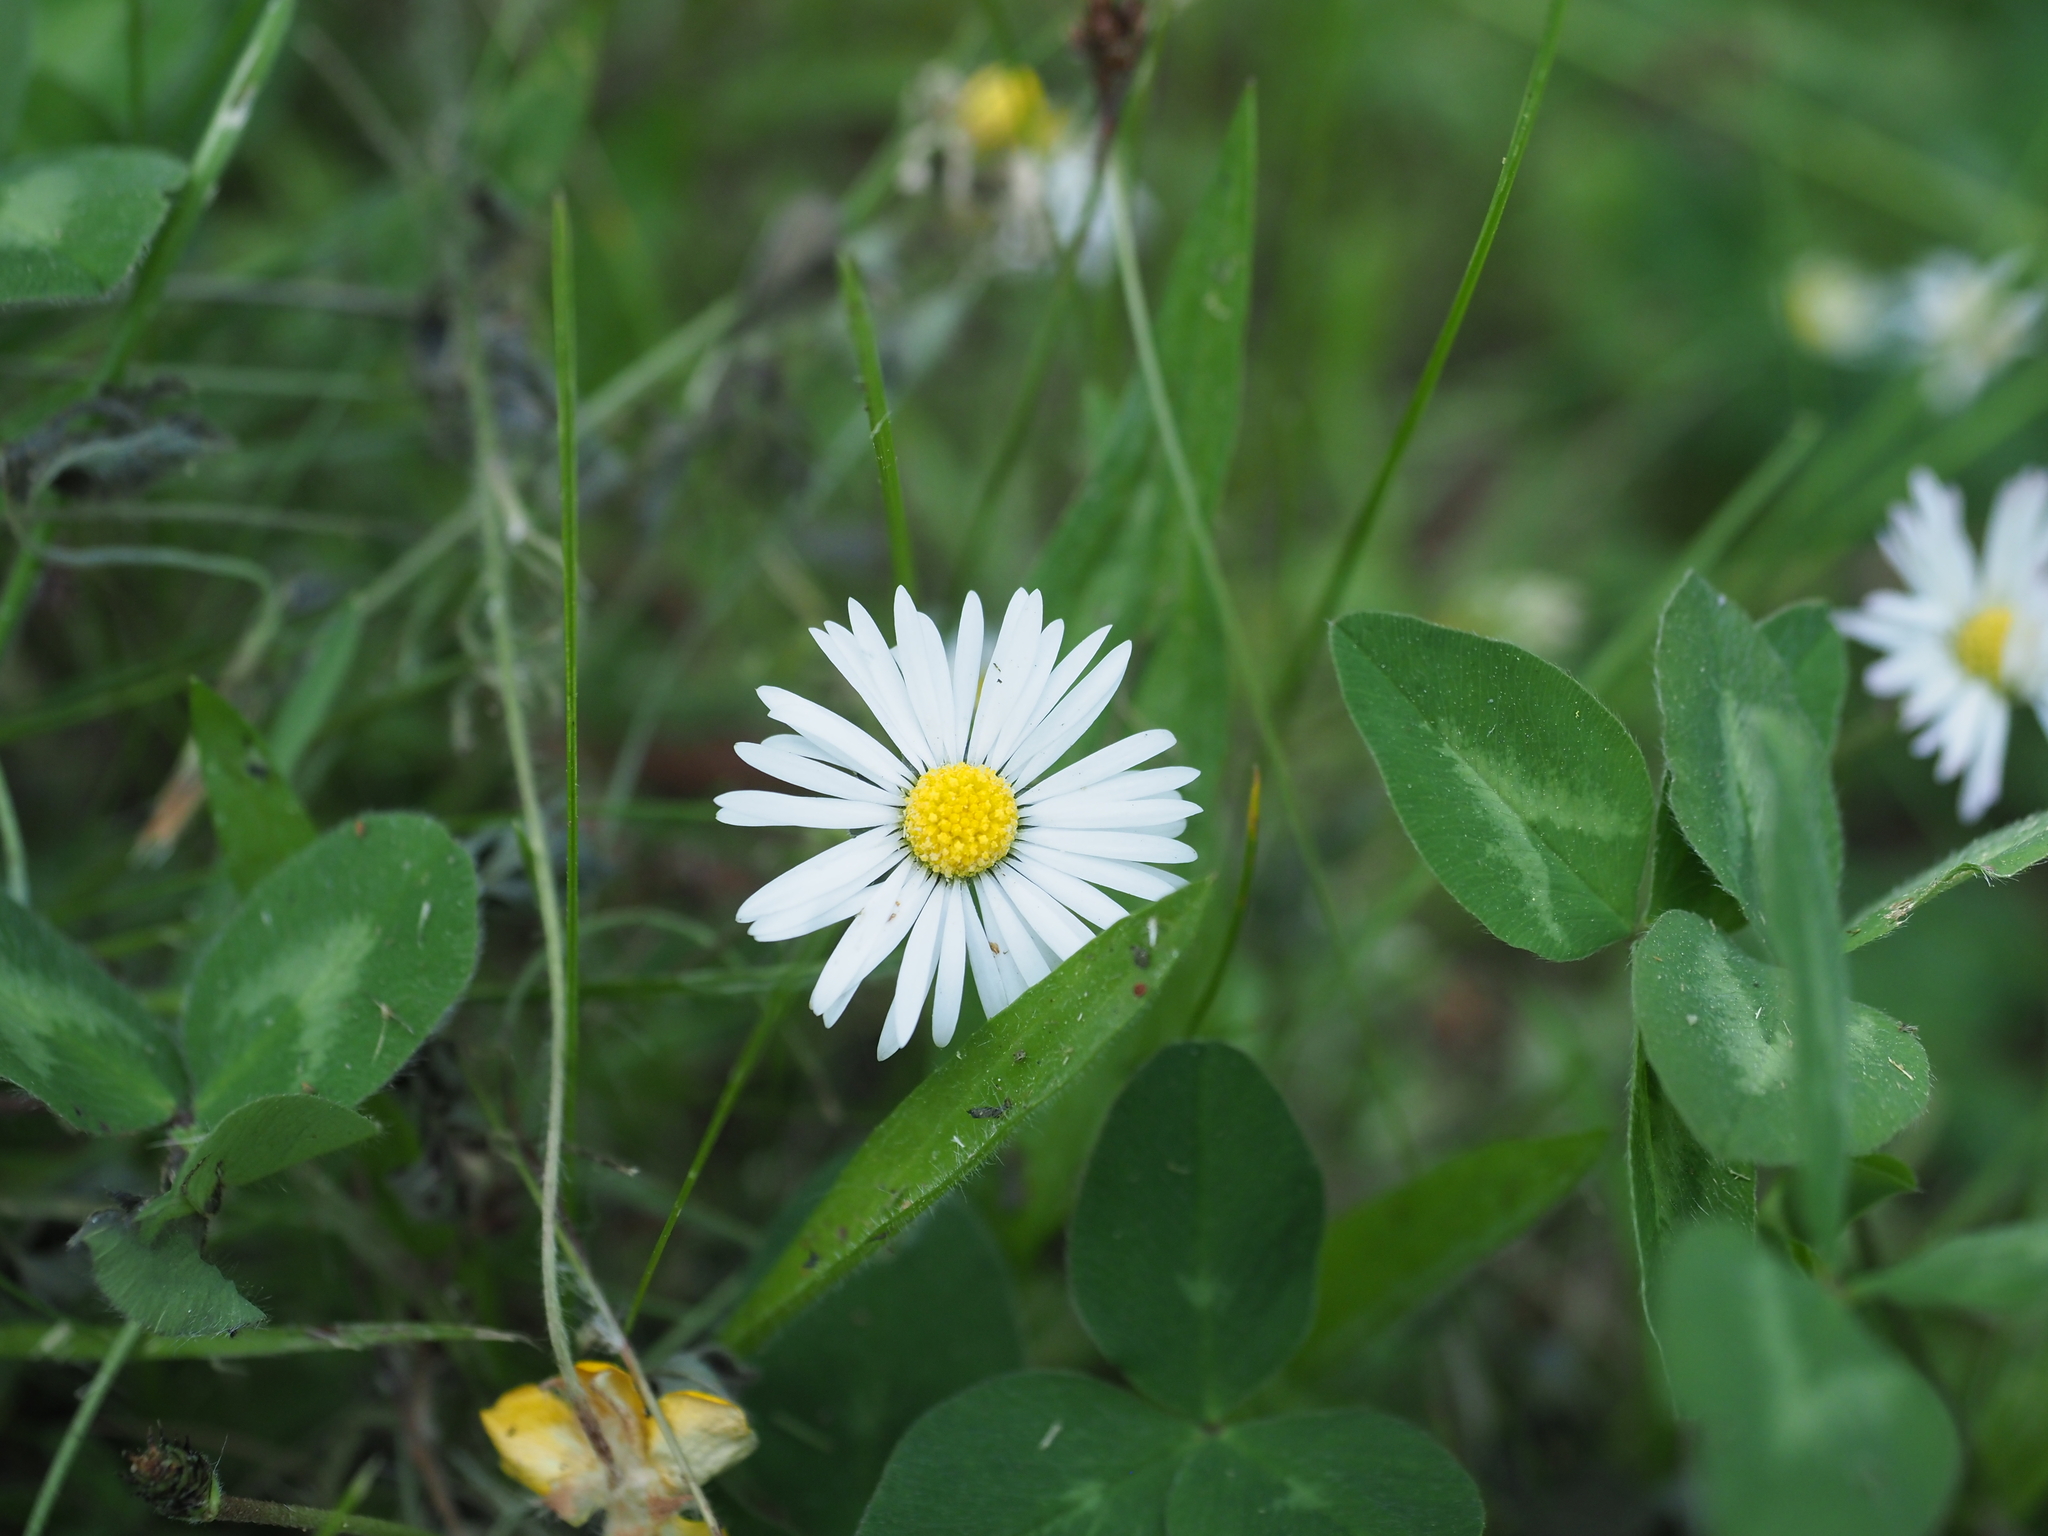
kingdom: Plantae
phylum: Tracheophyta
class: Magnoliopsida
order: Asterales
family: Asteraceae
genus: Bellis
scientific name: Bellis perennis
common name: Lawndaisy
